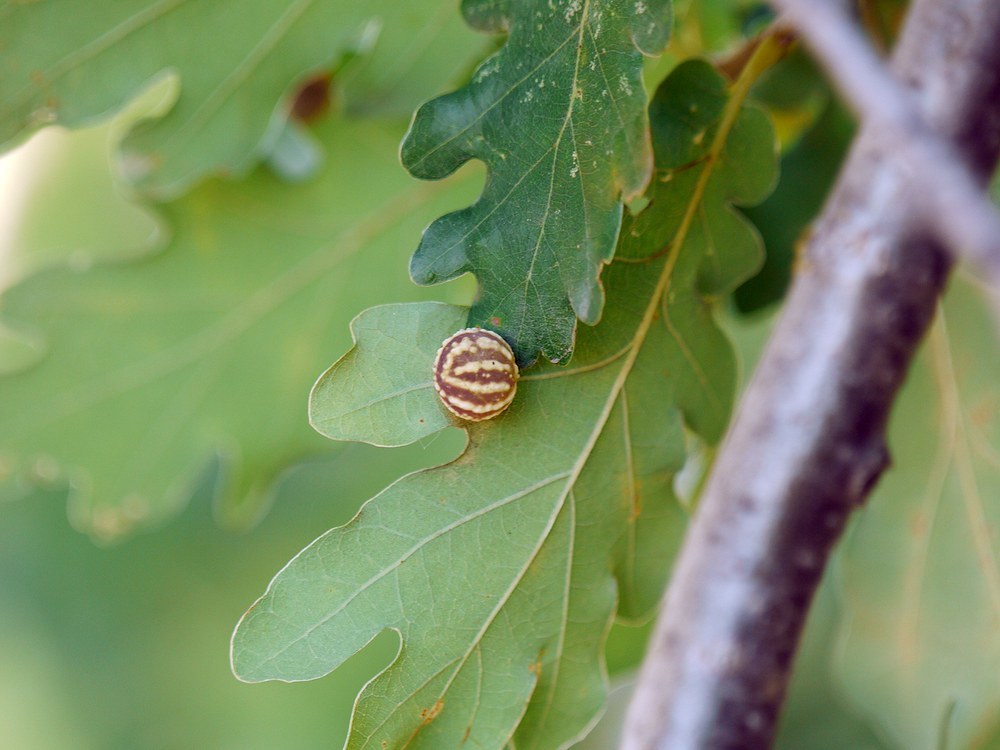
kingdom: Animalia
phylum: Arthropoda
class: Insecta
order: Hymenoptera
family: Cynipidae
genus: Cynips
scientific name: Cynips longiventris
